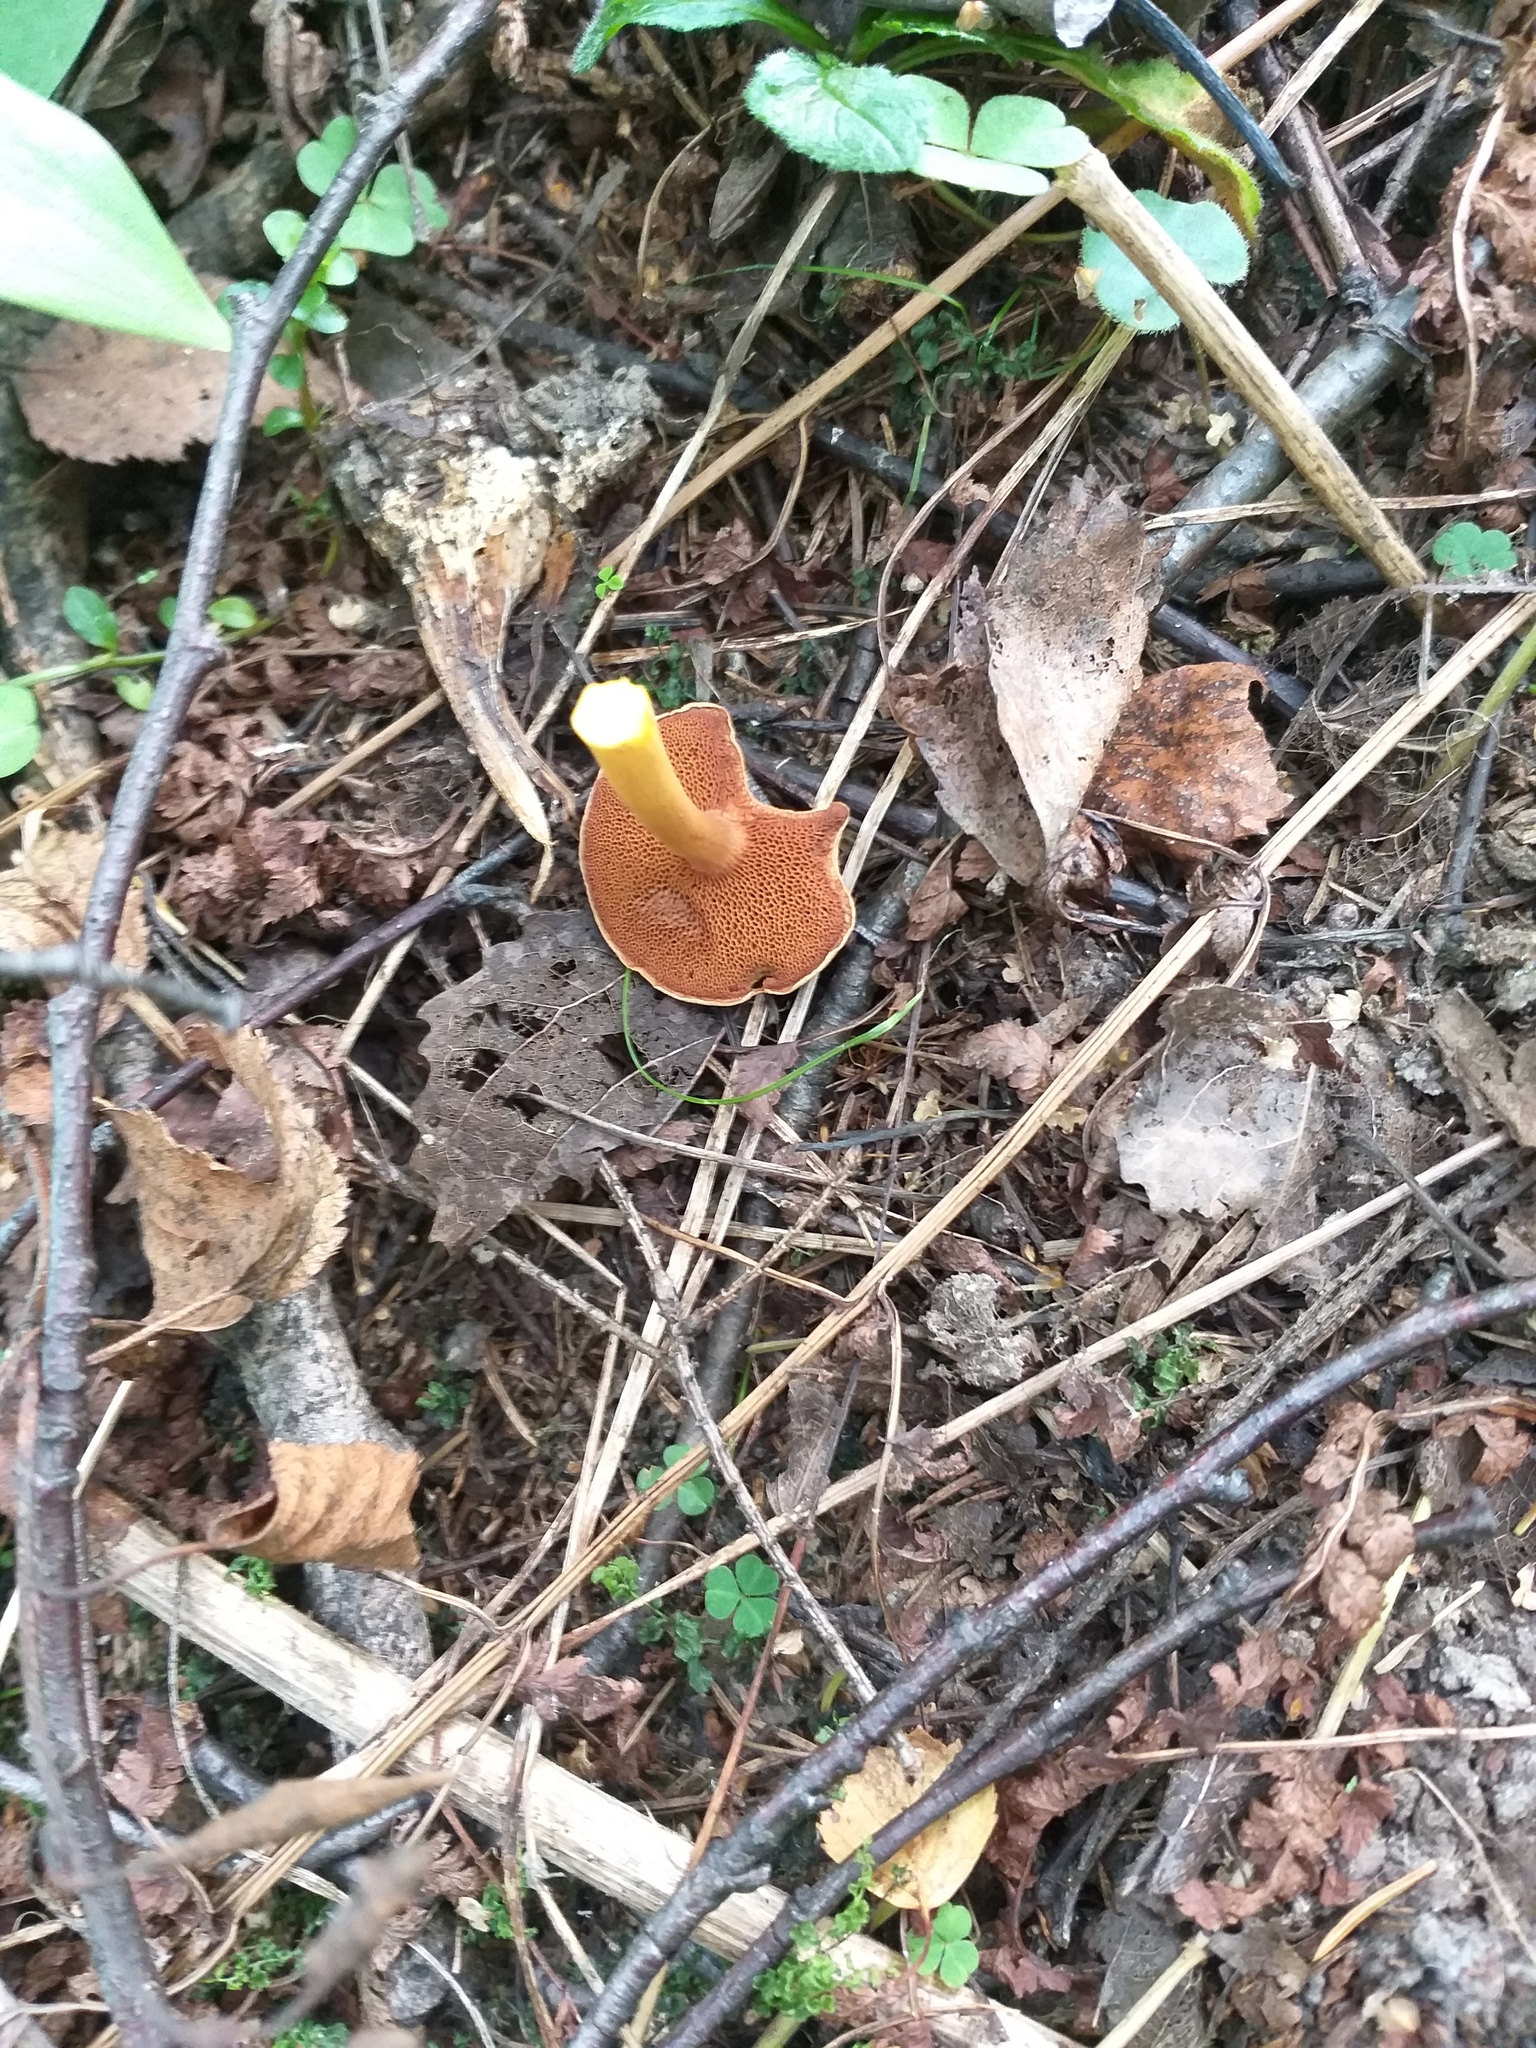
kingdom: Fungi
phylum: Basidiomycota
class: Agaricomycetes
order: Boletales
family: Boletaceae
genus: Chalciporus
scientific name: Chalciporus piperatus
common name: Peppery bolete
